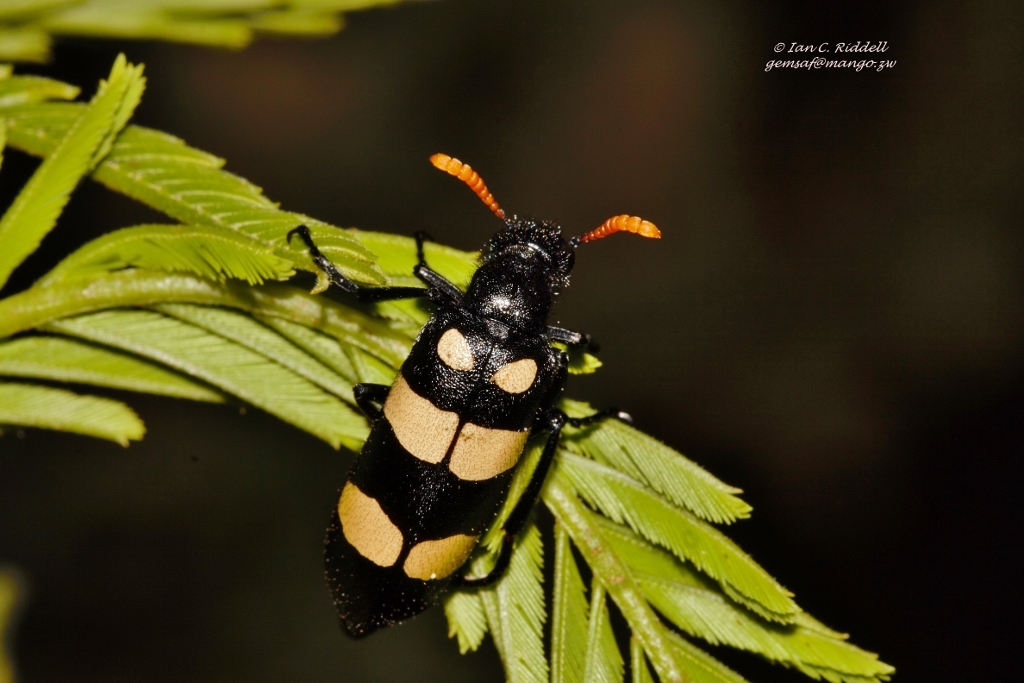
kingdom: Animalia
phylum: Arthropoda
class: Insecta
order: Coleoptera
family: Meloidae
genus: Hycleus
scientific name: Hycleus
